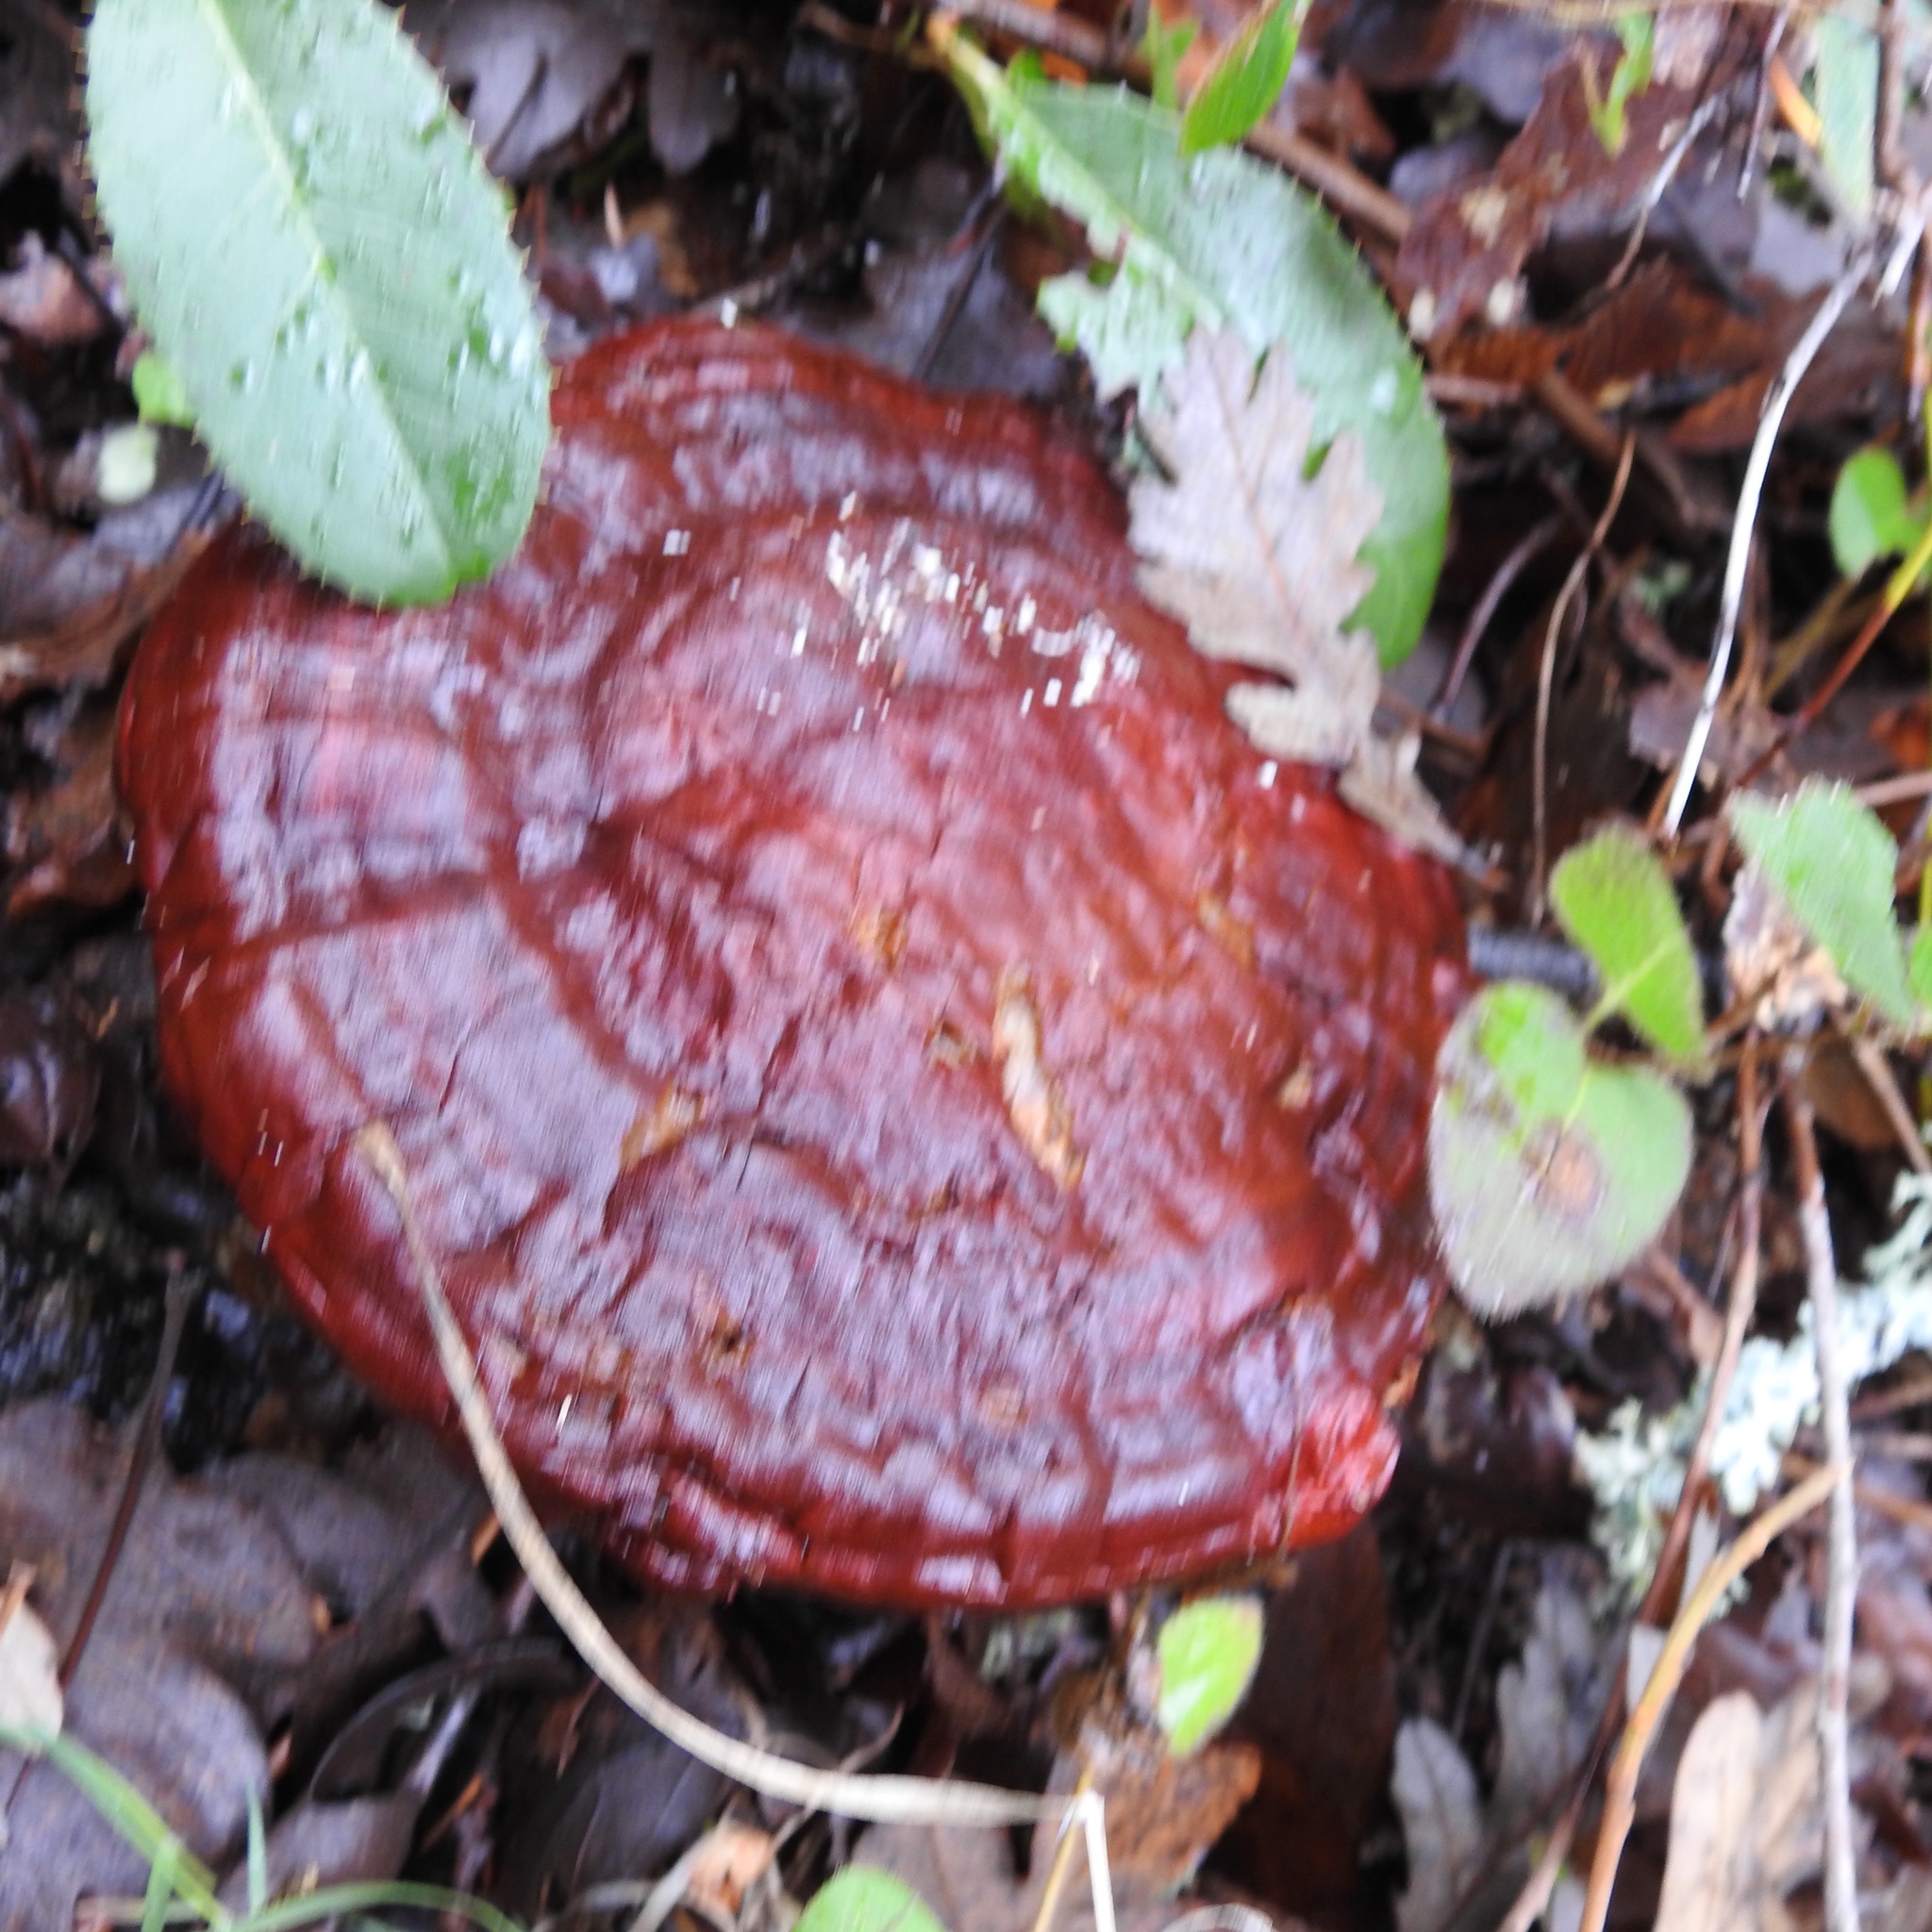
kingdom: Fungi
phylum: Basidiomycota
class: Agaricomycetes
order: Polyporales
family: Polyporaceae
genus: Ganoderma
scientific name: Ganoderma curtisii
